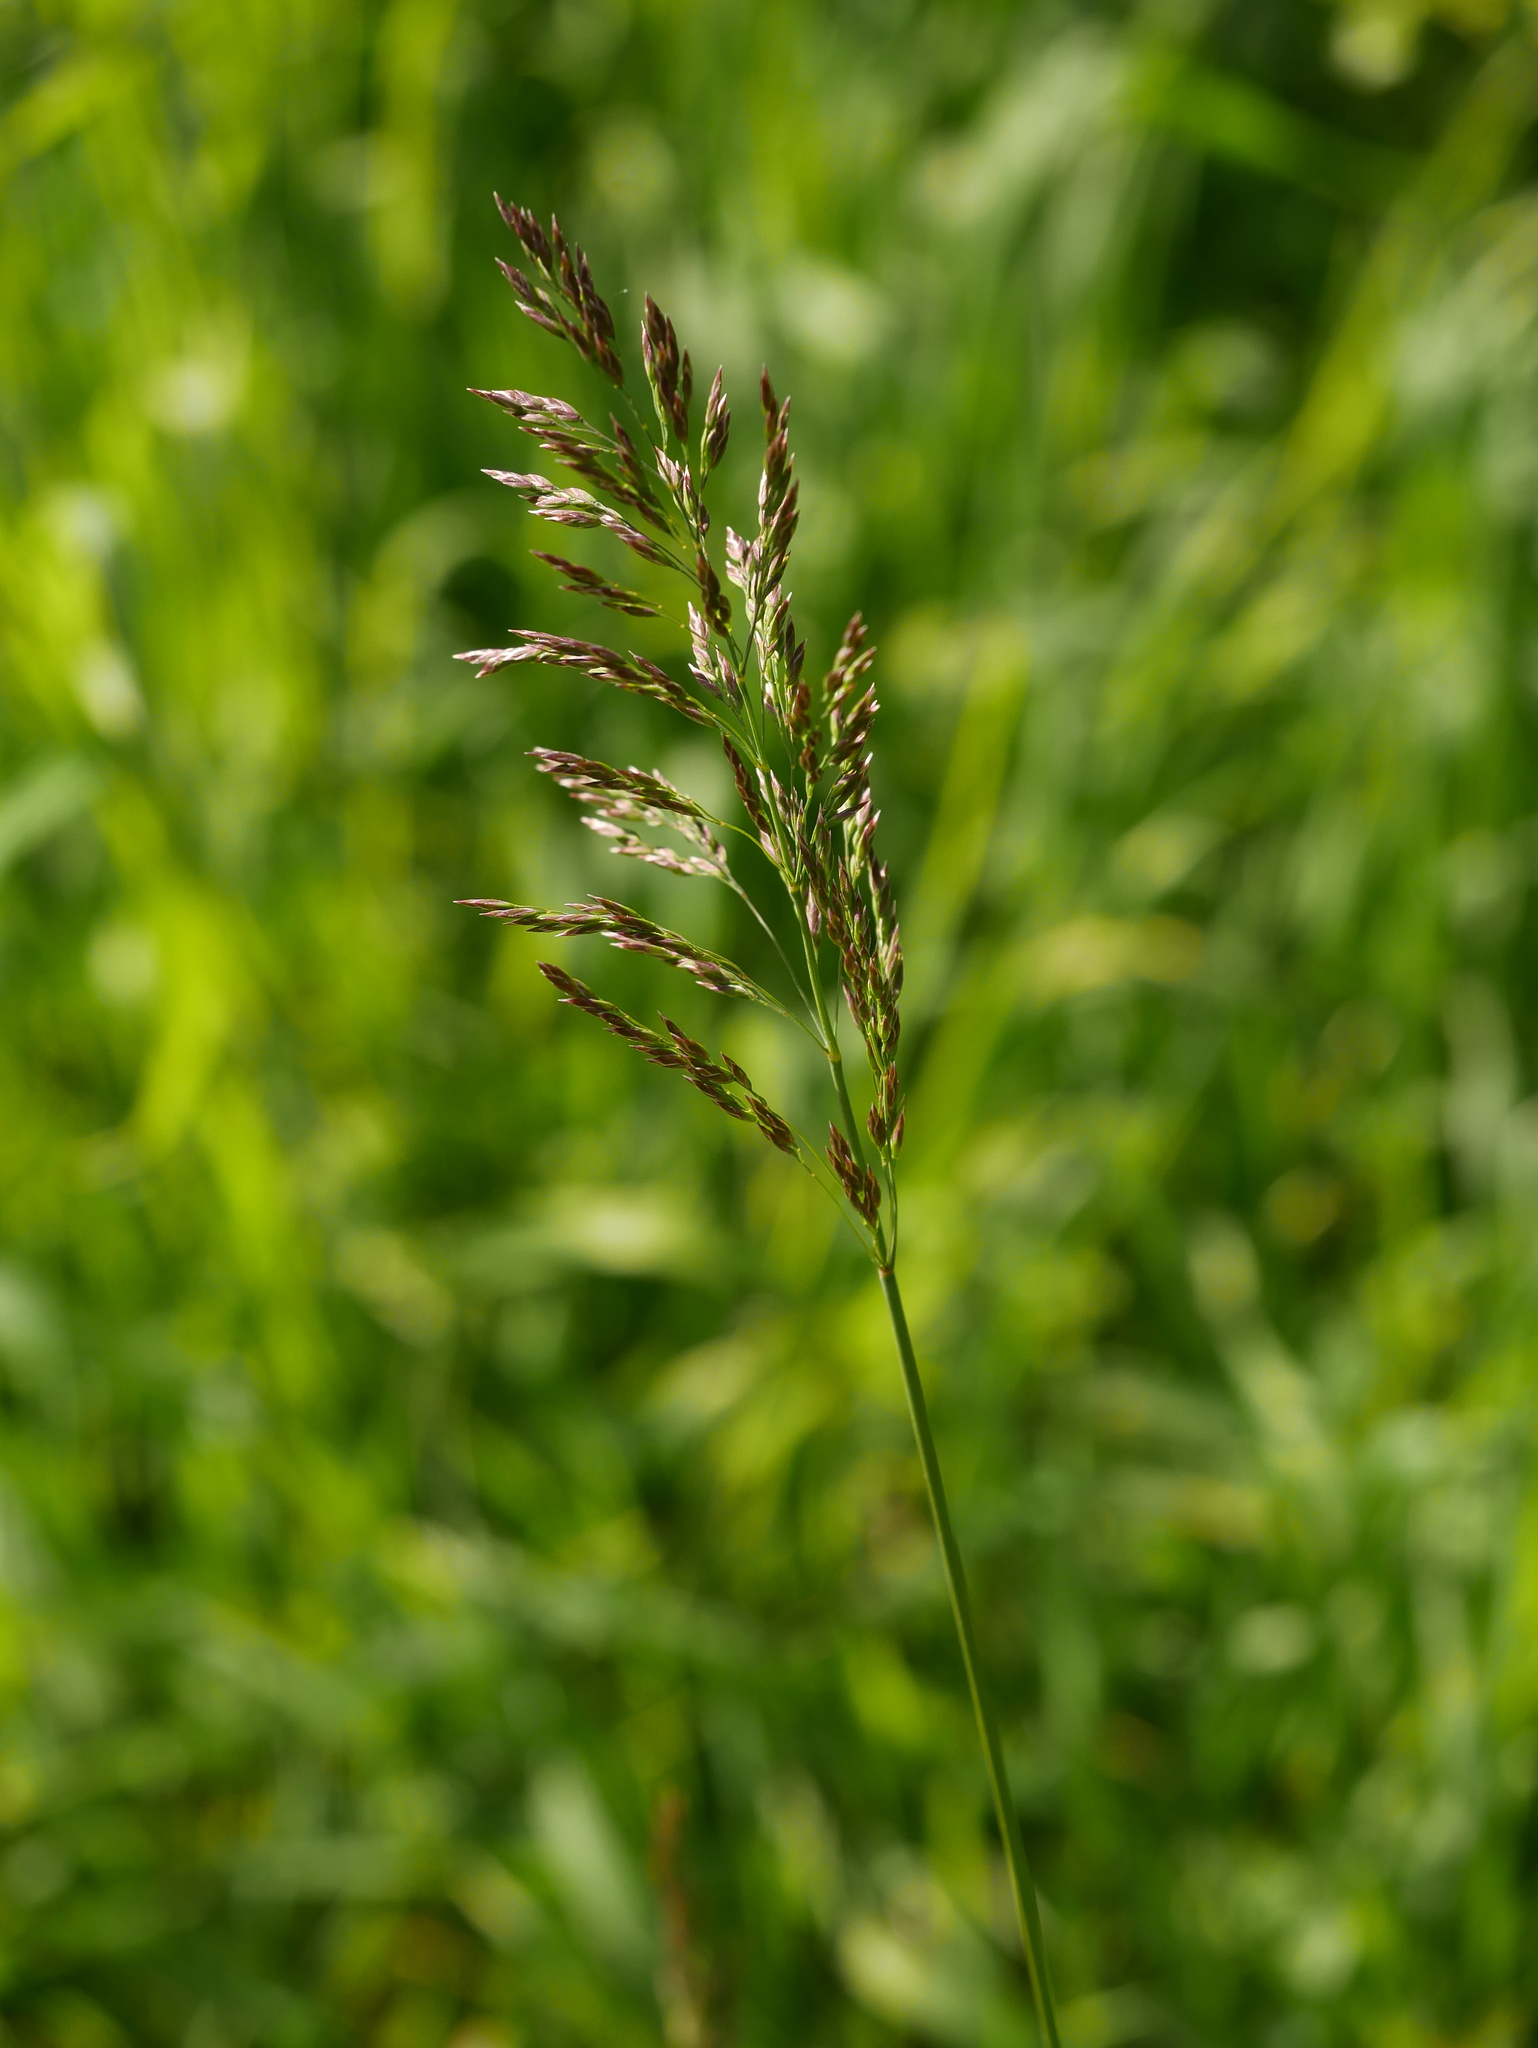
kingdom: Plantae
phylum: Tracheophyta
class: Liliopsida
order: Poales
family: Poaceae
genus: Poa
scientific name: Poa pratensis
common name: Kentucky bluegrass
